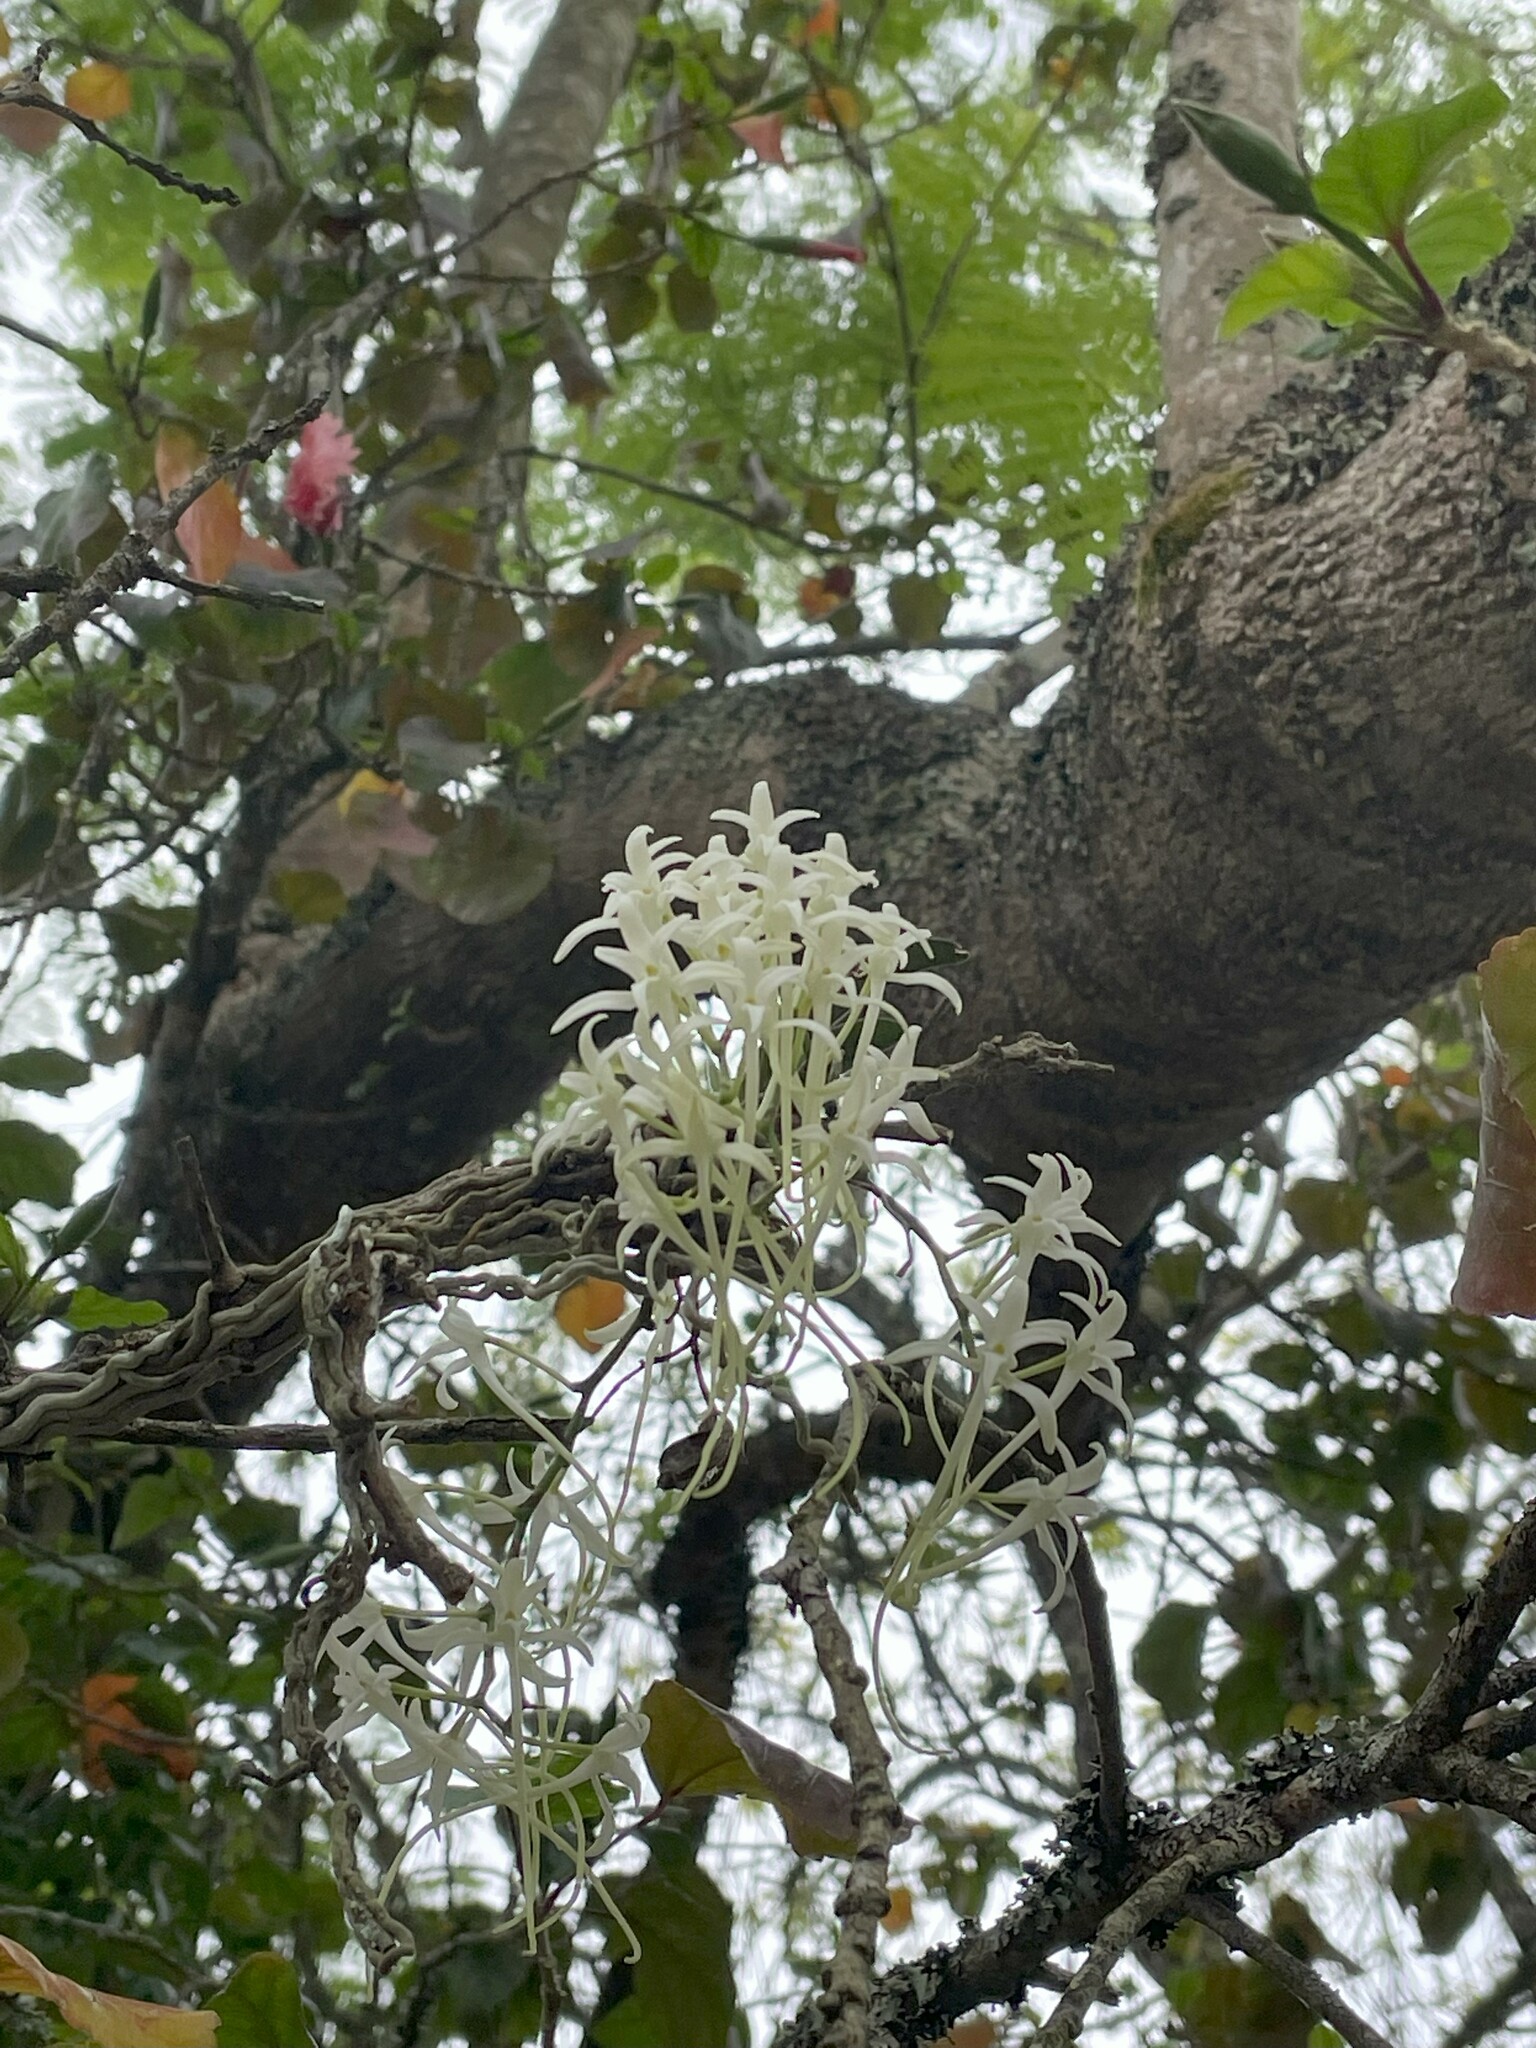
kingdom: Plantae
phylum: Tracheophyta
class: Liliopsida
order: Asparagales
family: Orchidaceae
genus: Mystacidium
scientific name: Mystacidium capense
